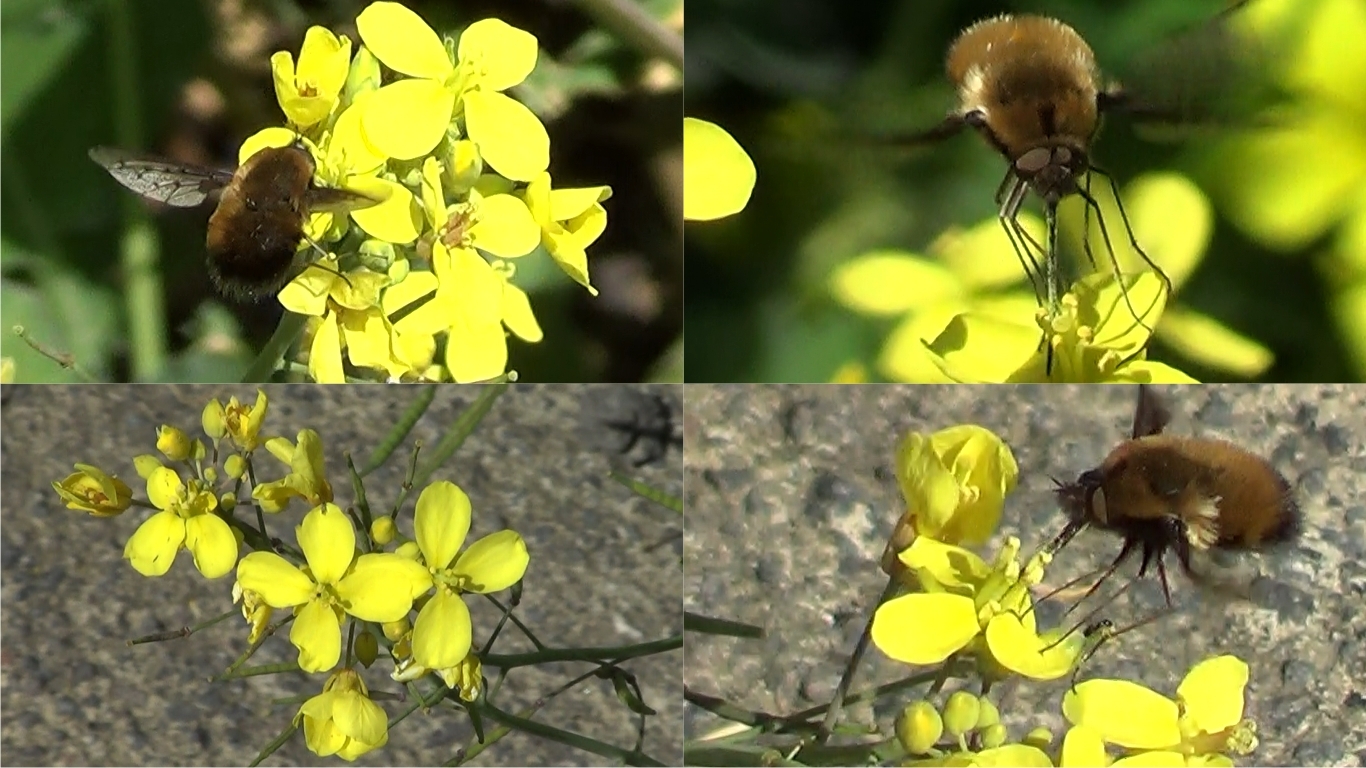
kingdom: Animalia
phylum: Arthropoda
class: Insecta
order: Diptera
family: Bombyliidae
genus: Bombylius
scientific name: Bombylius discolor
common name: Dotted bee-fly
